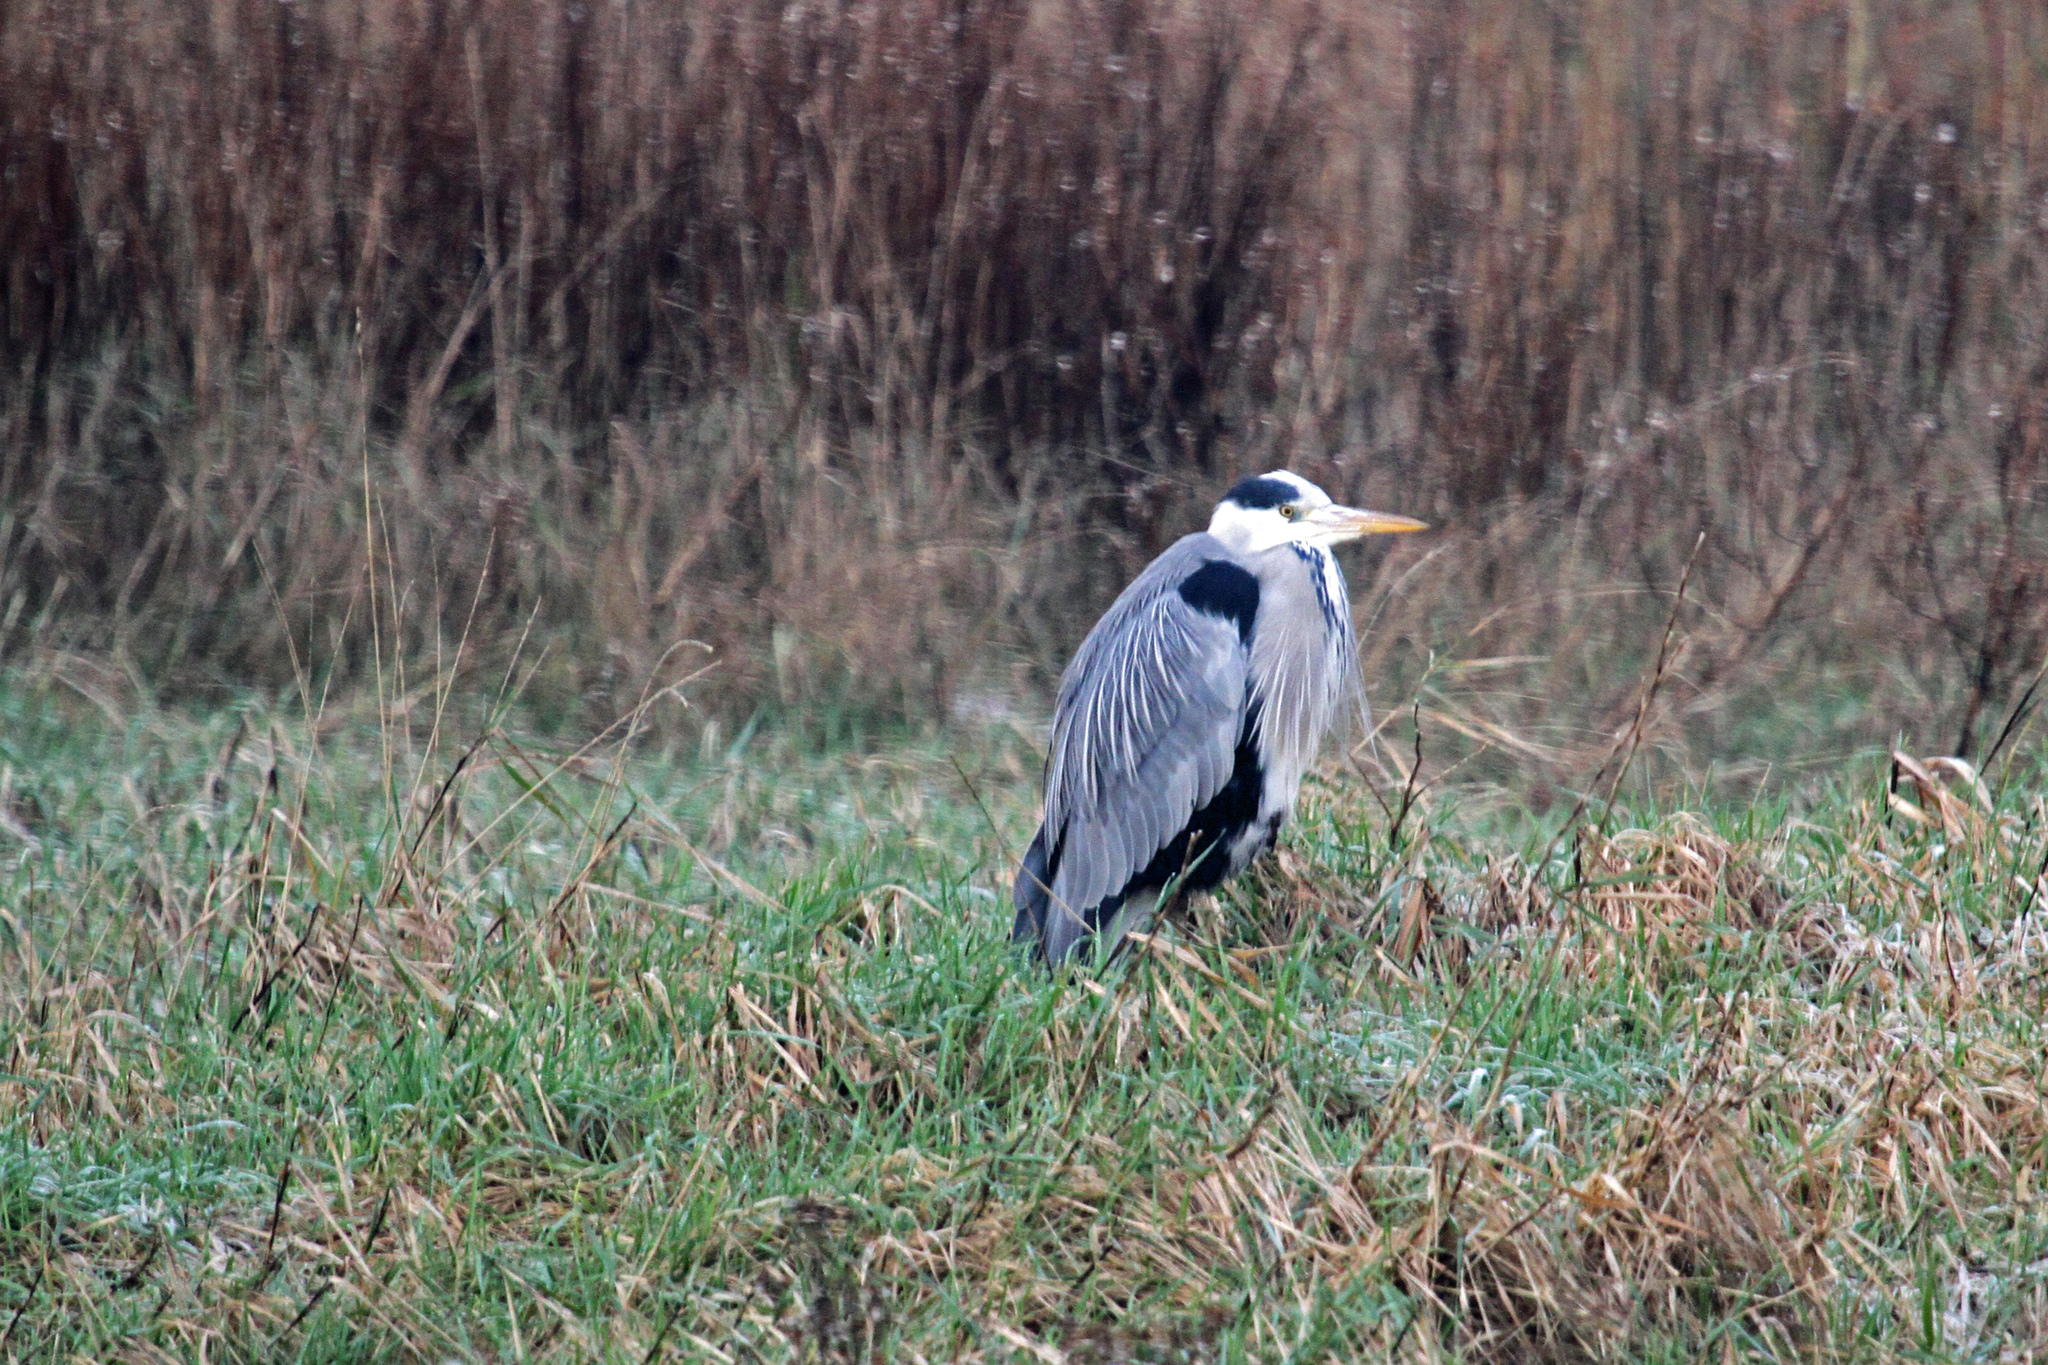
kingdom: Animalia
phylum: Chordata
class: Aves
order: Pelecaniformes
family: Ardeidae
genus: Ardea
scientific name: Ardea cinerea
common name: Grey heron
